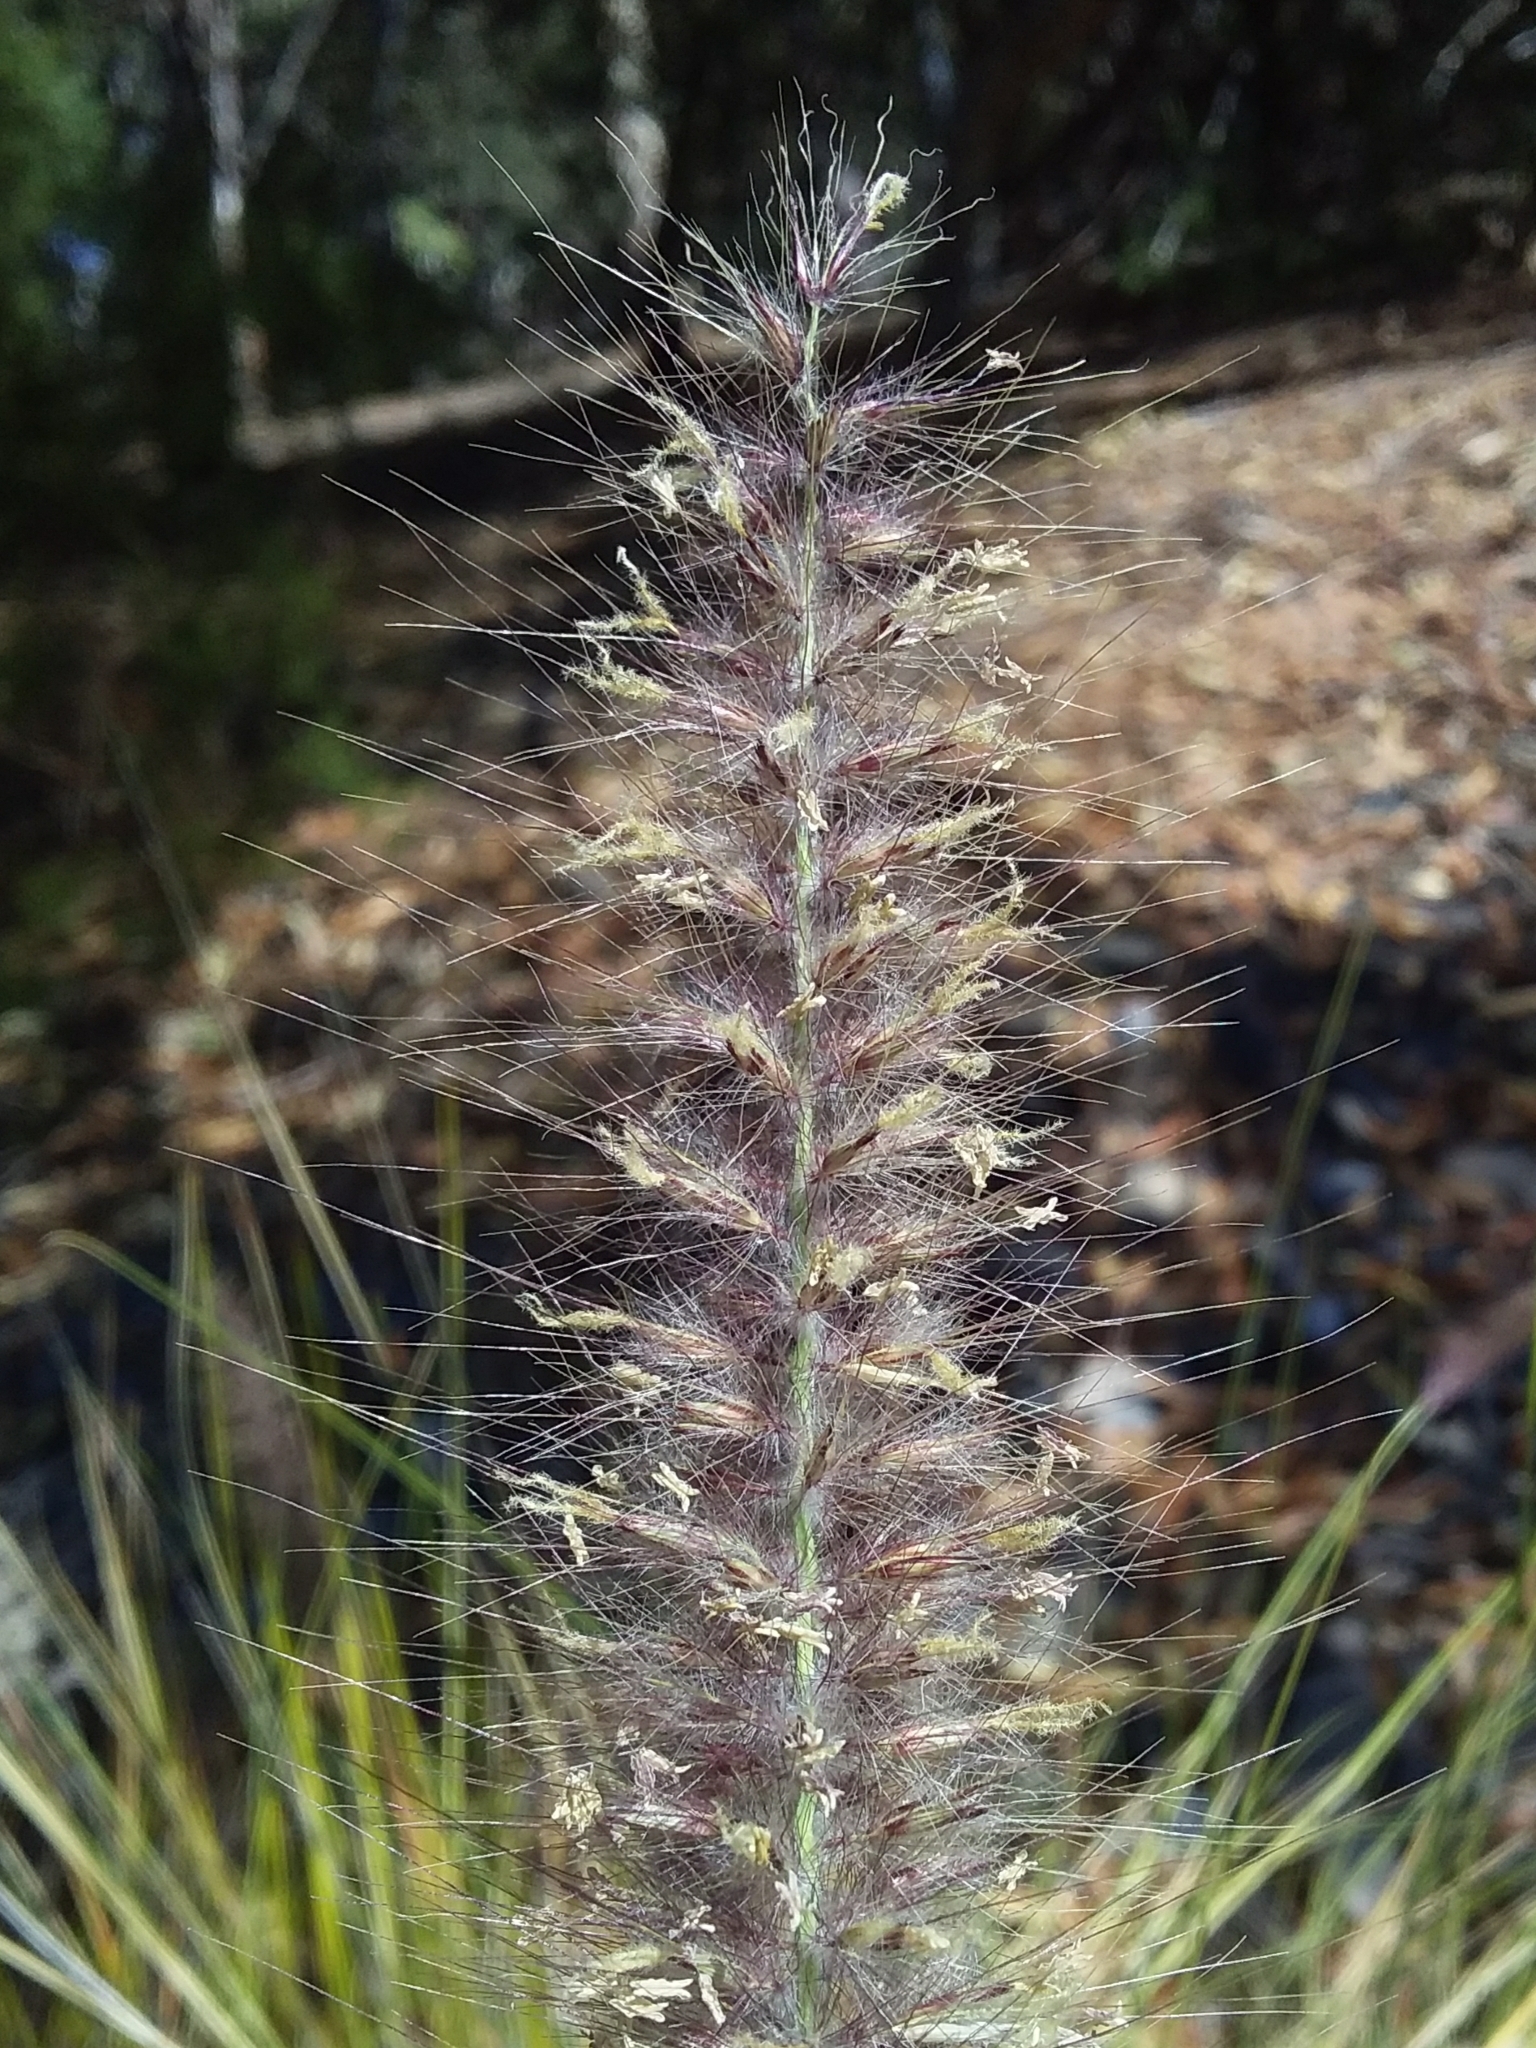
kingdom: Plantae
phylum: Tracheophyta
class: Liliopsida
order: Poales
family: Poaceae
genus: Cenchrus
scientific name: Cenchrus setaceus
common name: Crimson fountaingrass
